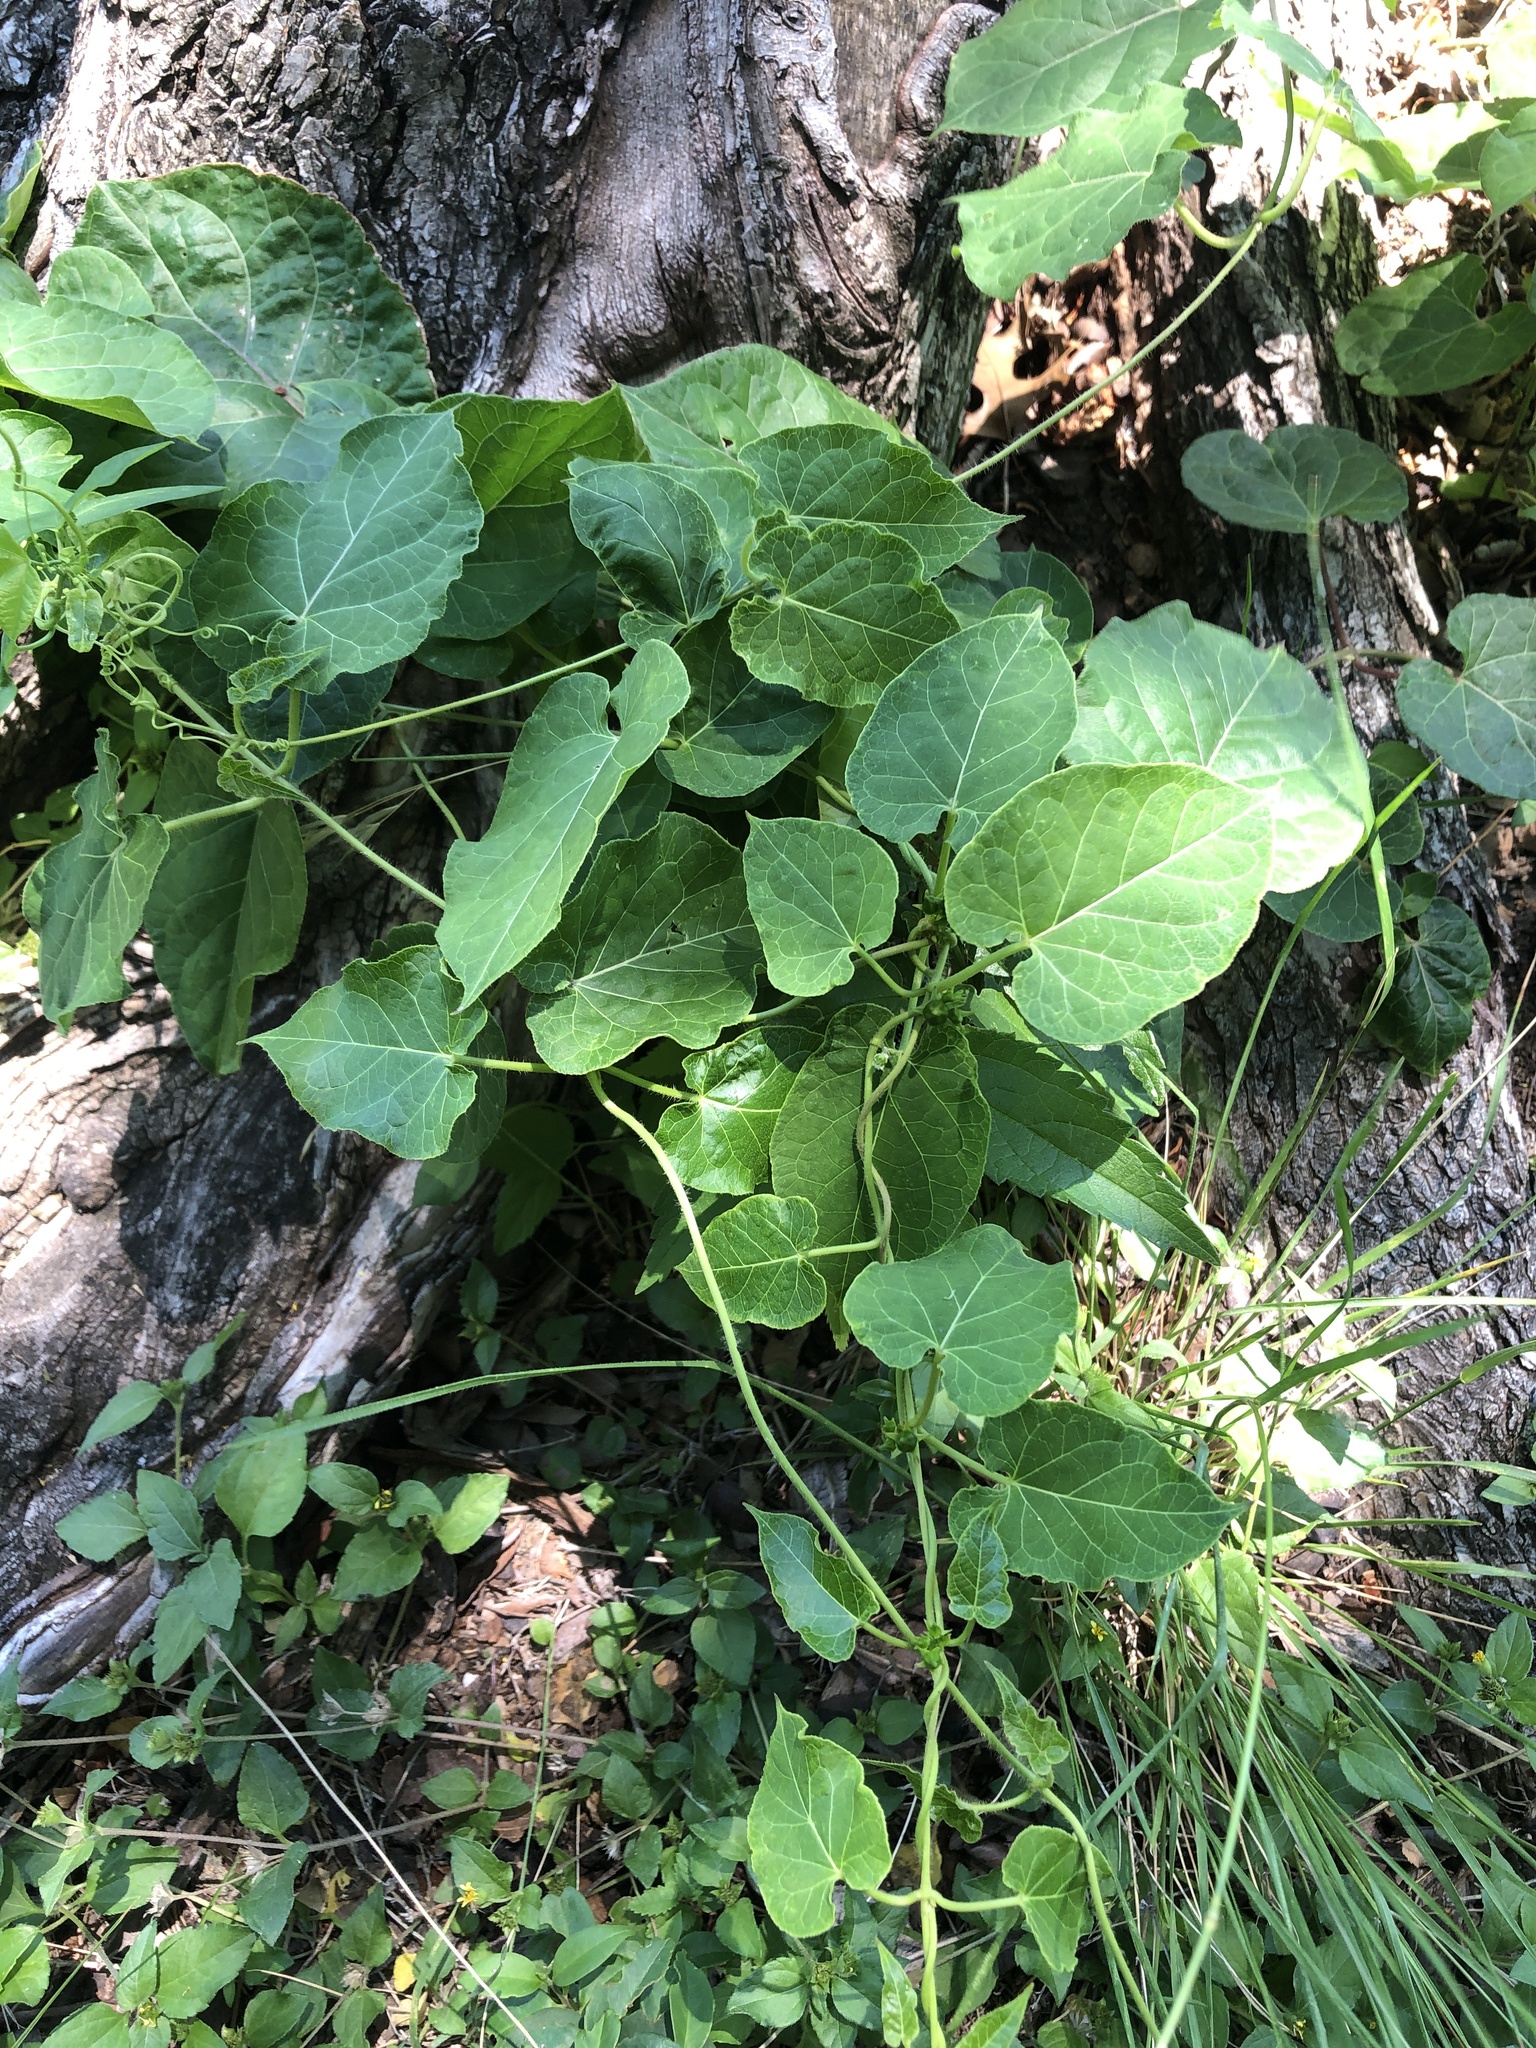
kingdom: Plantae
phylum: Tracheophyta
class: Magnoliopsida
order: Gentianales
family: Apocynaceae
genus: Gonolobus
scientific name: Gonolobus suberosus
